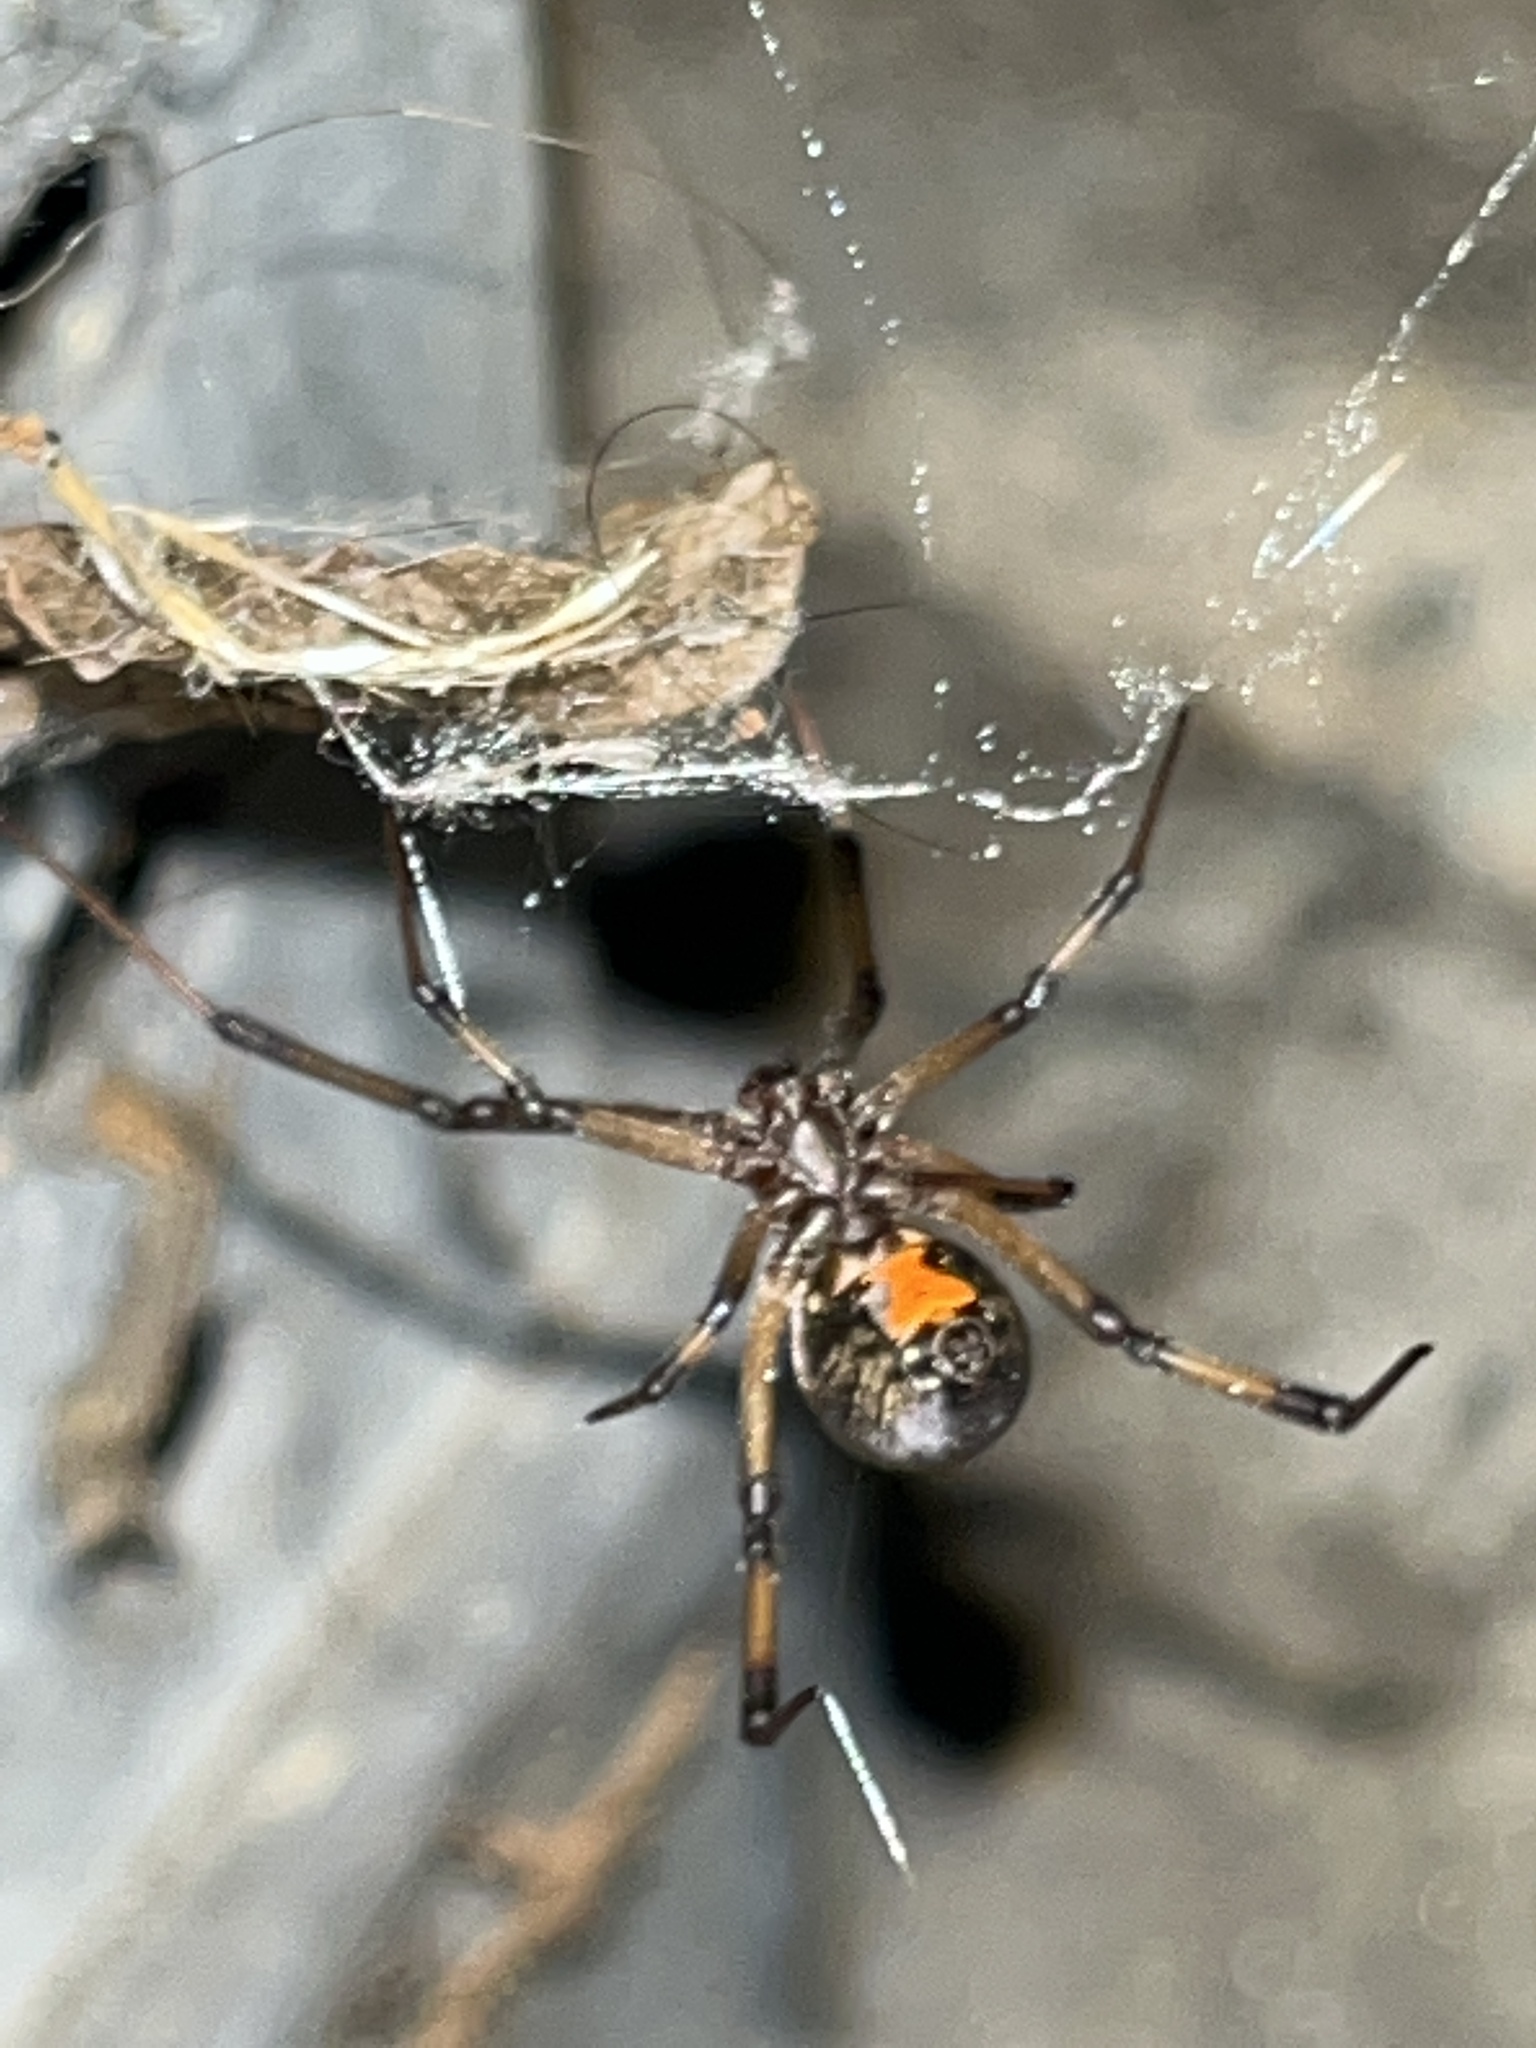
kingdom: Animalia
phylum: Arthropoda
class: Arachnida
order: Araneae
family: Theridiidae
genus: Latrodectus
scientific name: Latrodectus geometricus
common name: Brown widow spider
